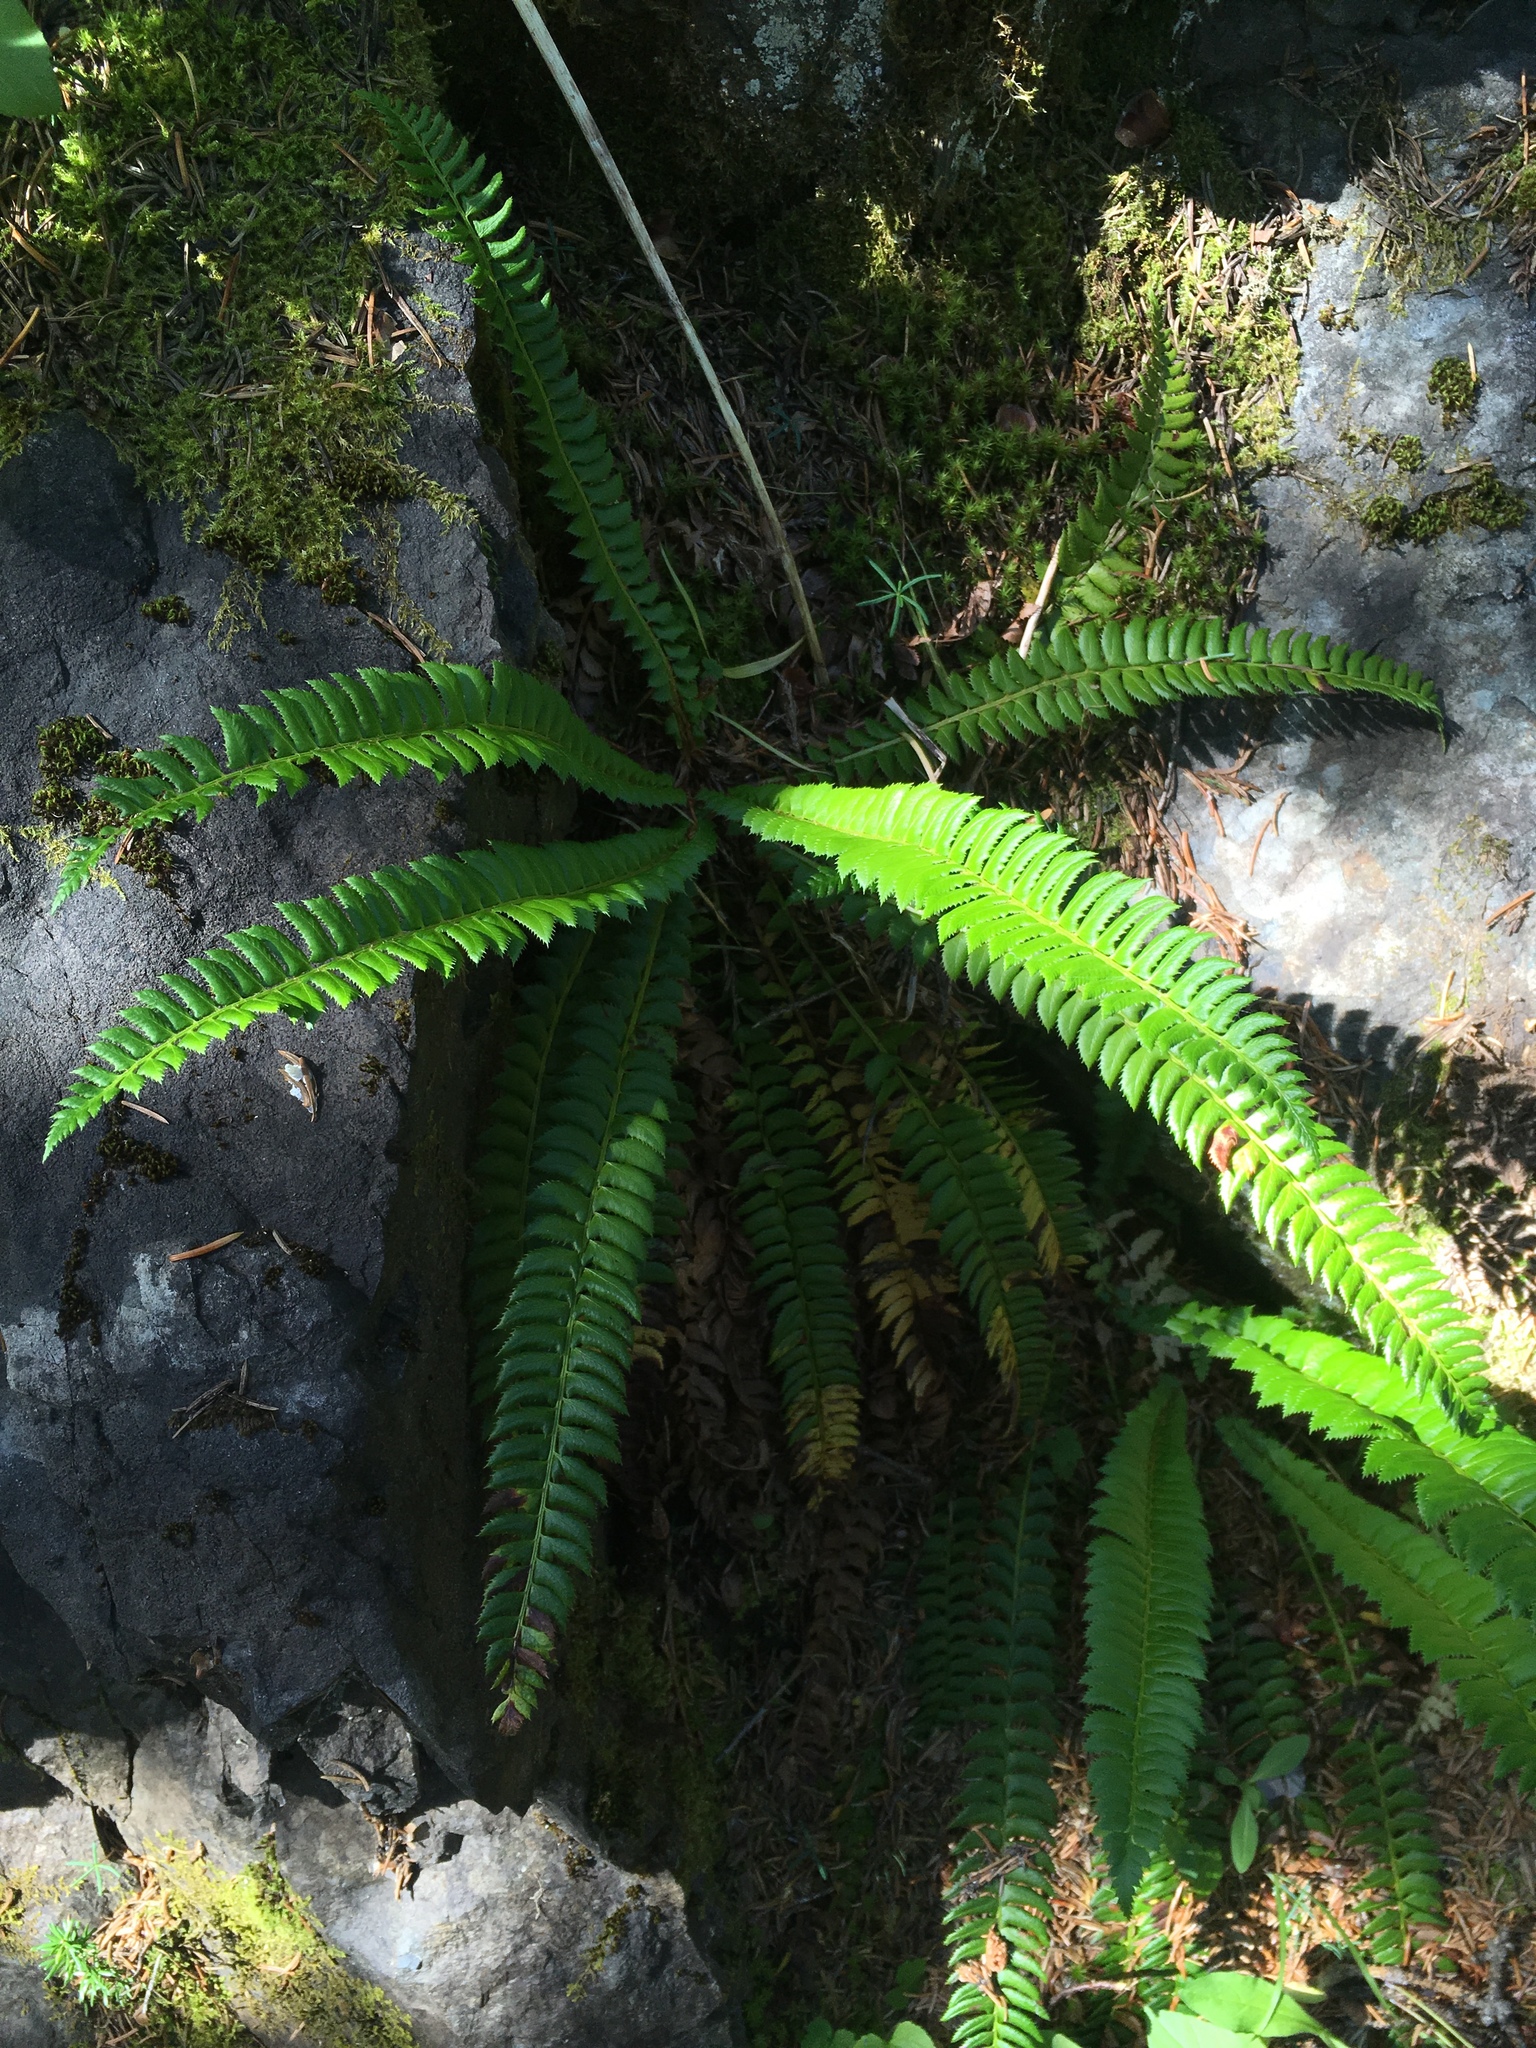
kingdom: Plantae
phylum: Tracheophyta
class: Polypodiopsida
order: Polypodiales
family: Dryopteridaceae
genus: Polystichum
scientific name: Polystichum lonchitis
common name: Holly fern
